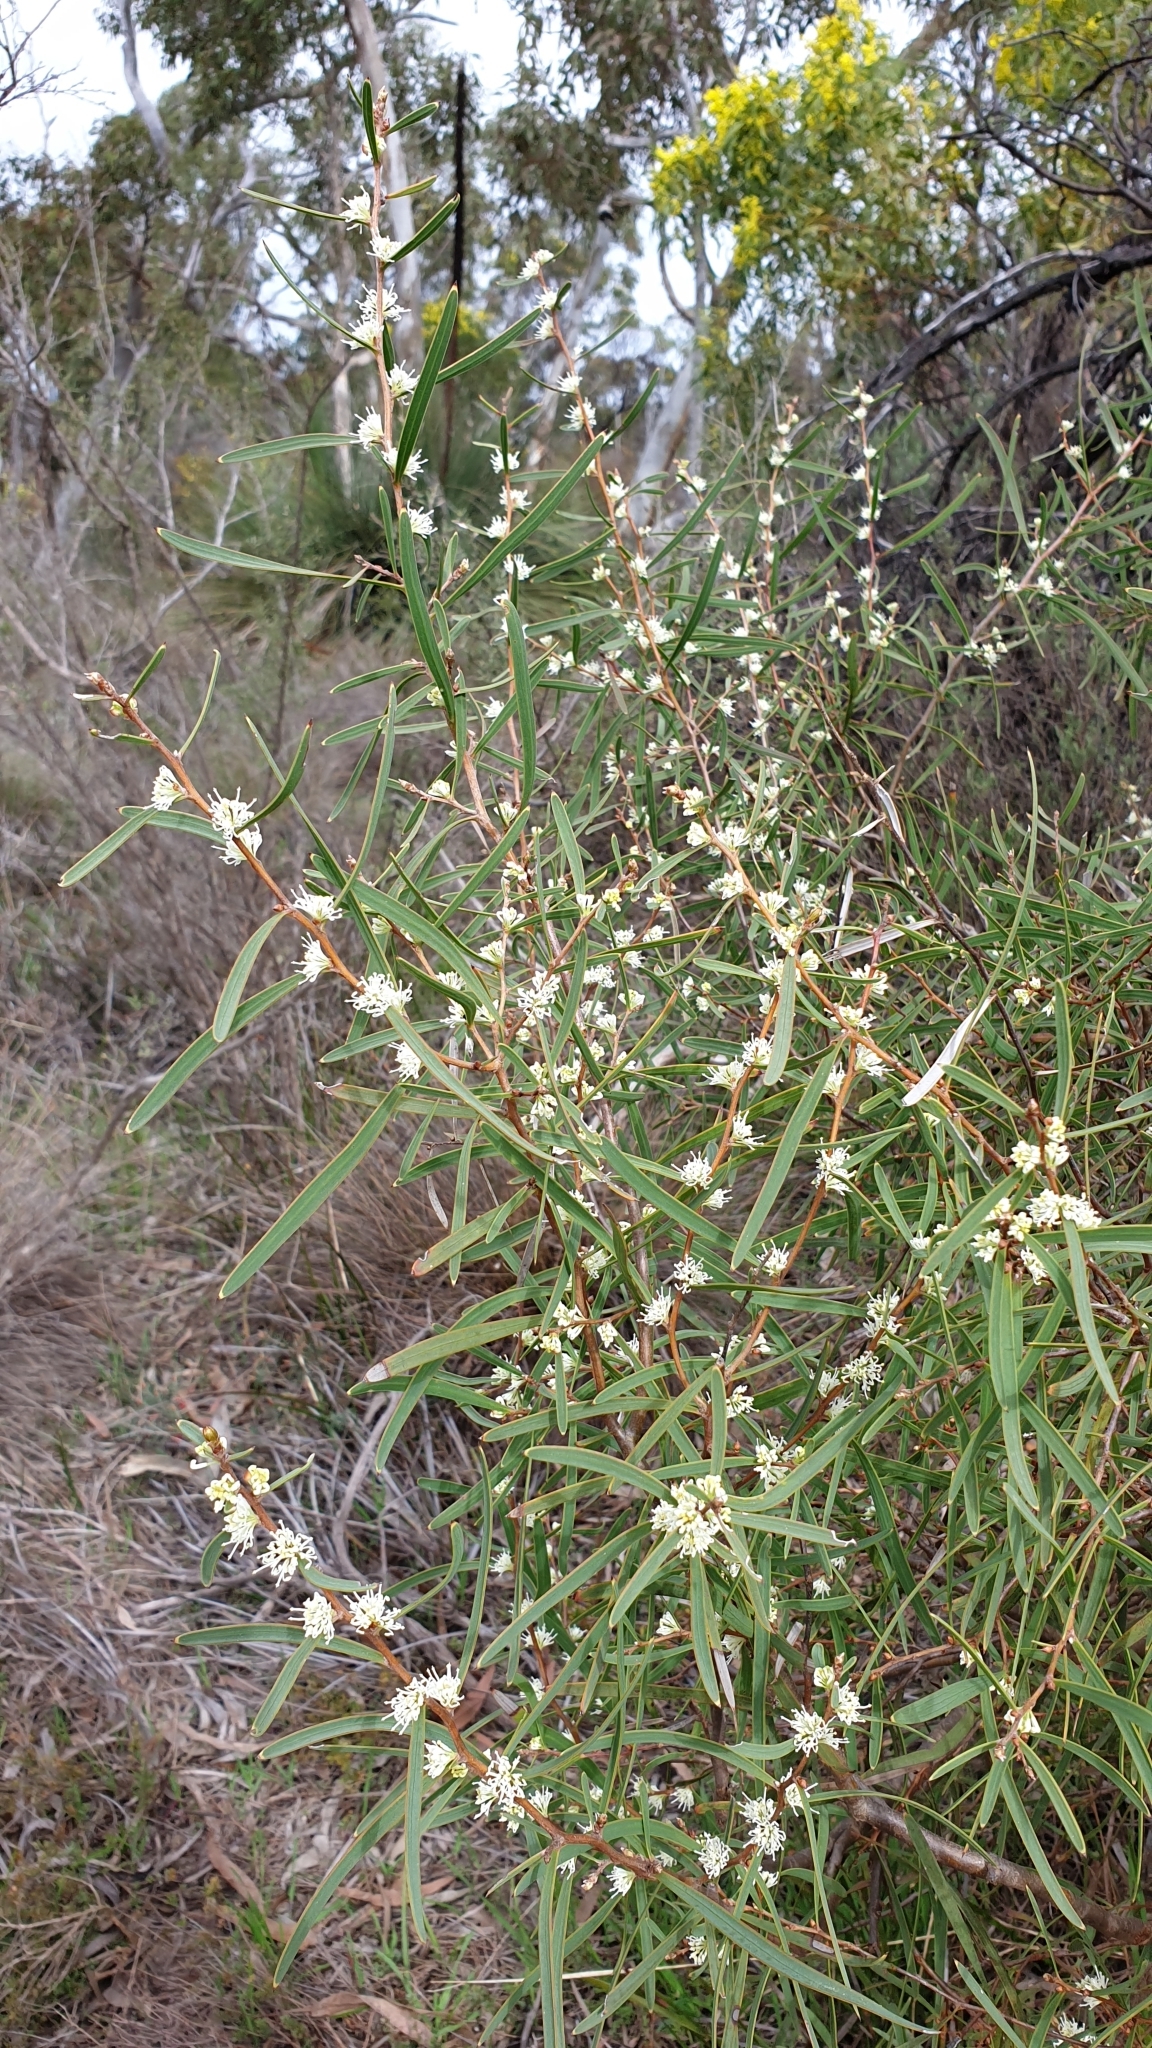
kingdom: Plantae
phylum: Tracheophyta
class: Magnoliopsida
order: Proteales
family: Proteaceae
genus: Hakea
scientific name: Hakea carinata
